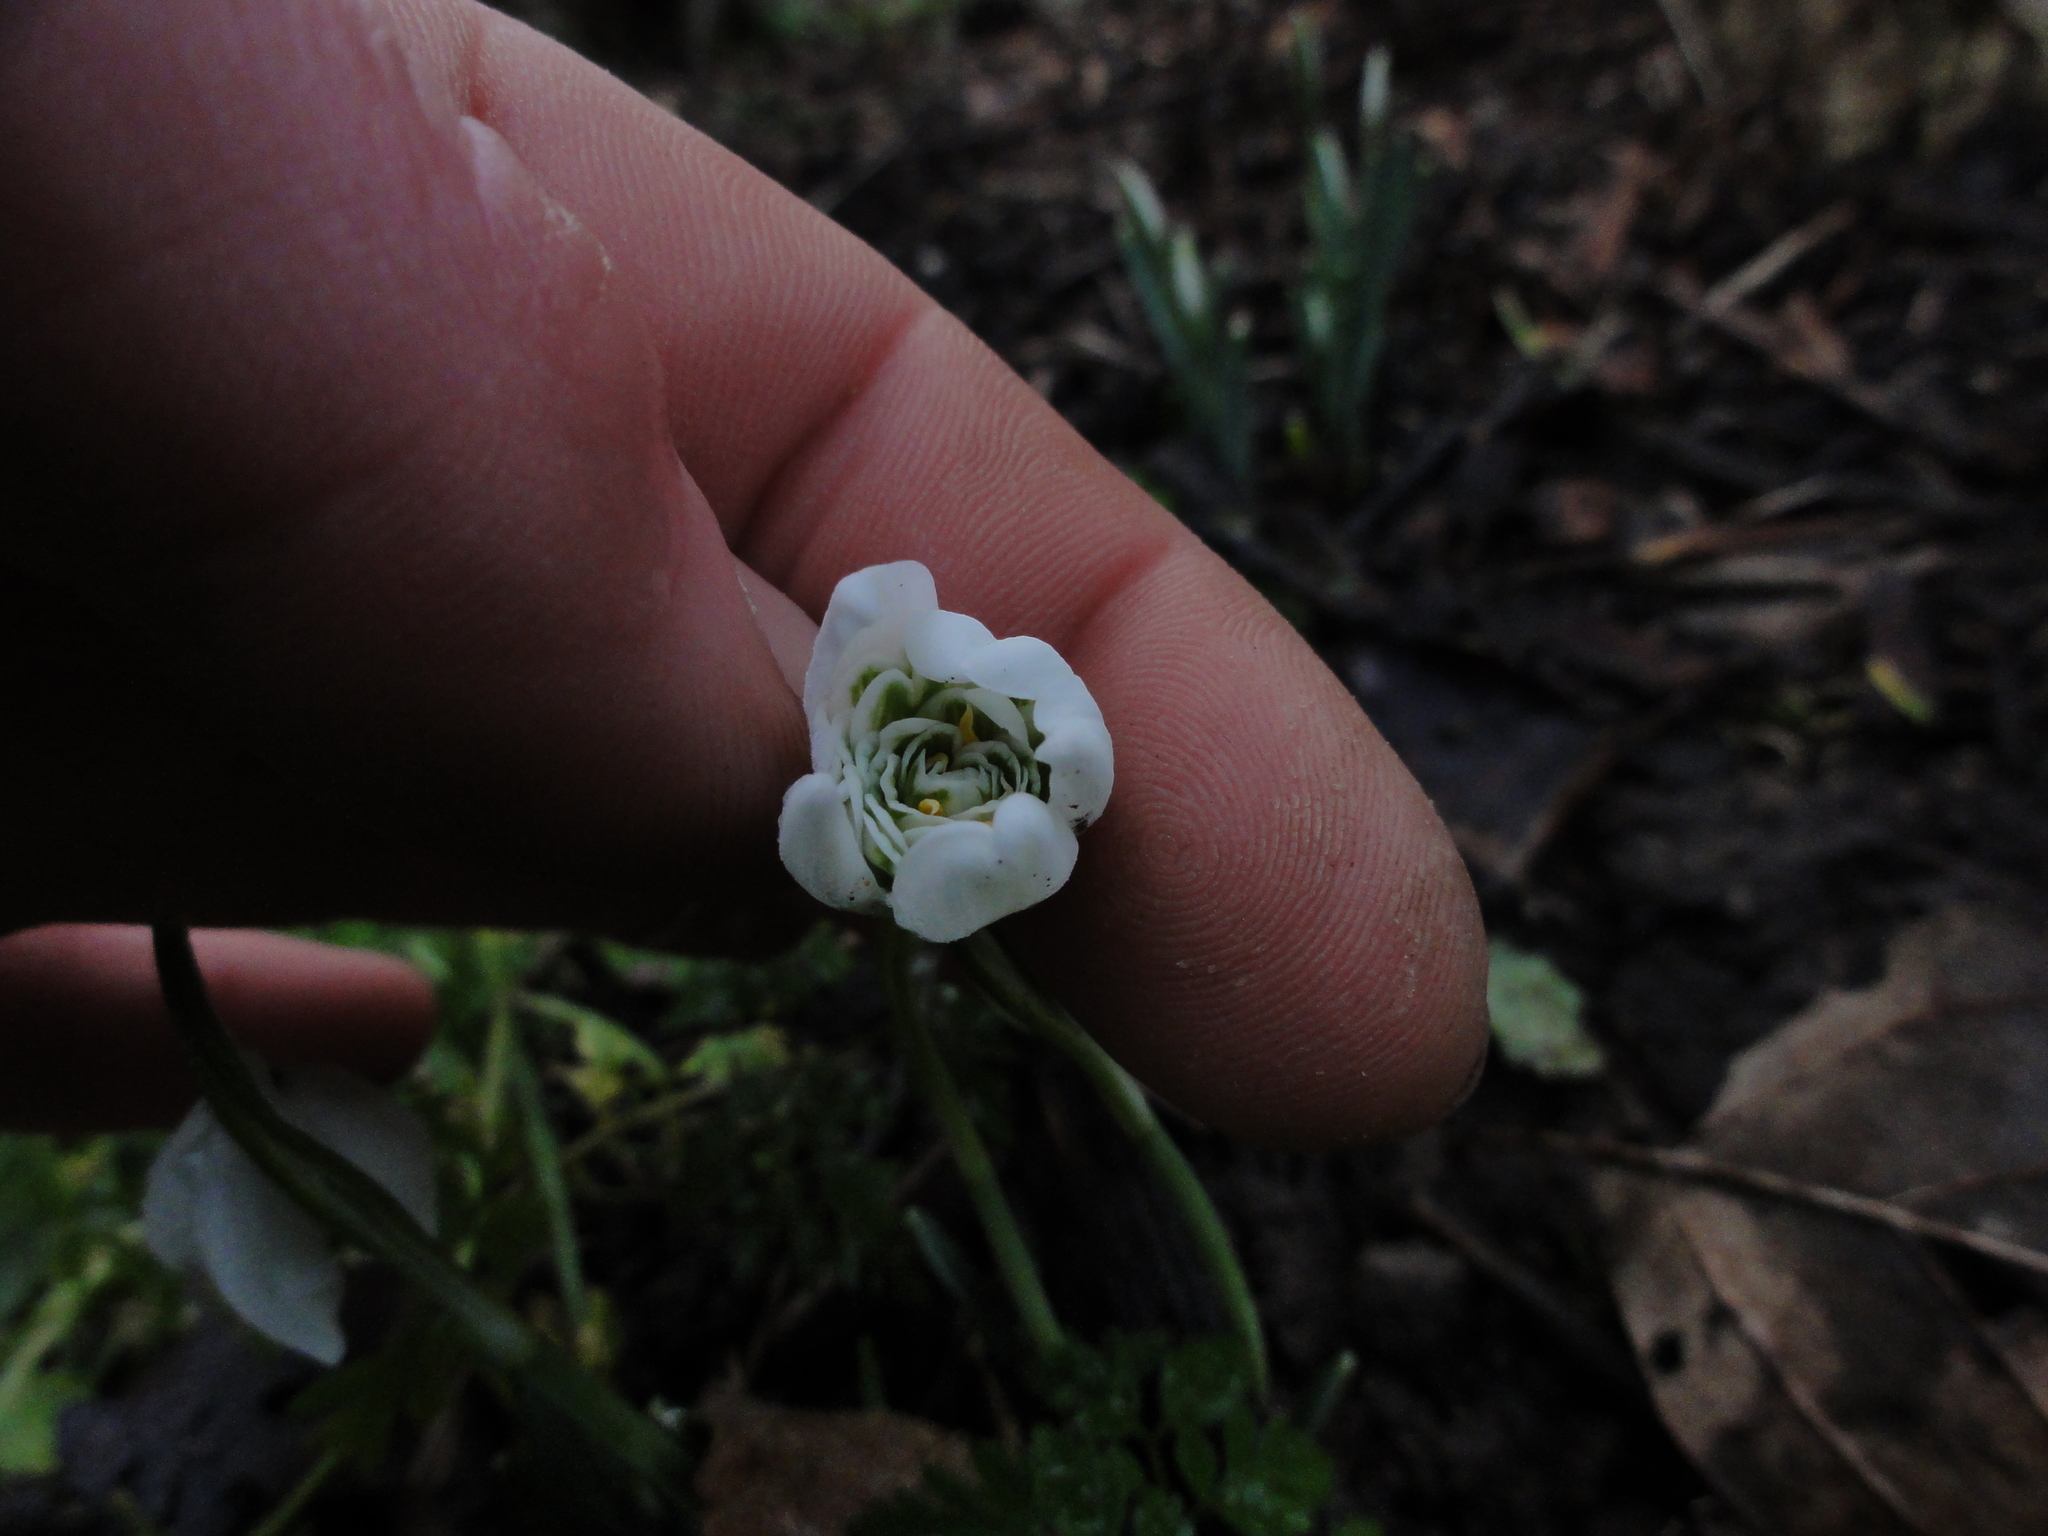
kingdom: Plantae
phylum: Tracheophyta
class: Liliopsida
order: Asparagales
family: Amaryllidaceae
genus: Galanthus
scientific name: Galanthus nivalis
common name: Snowdrop
